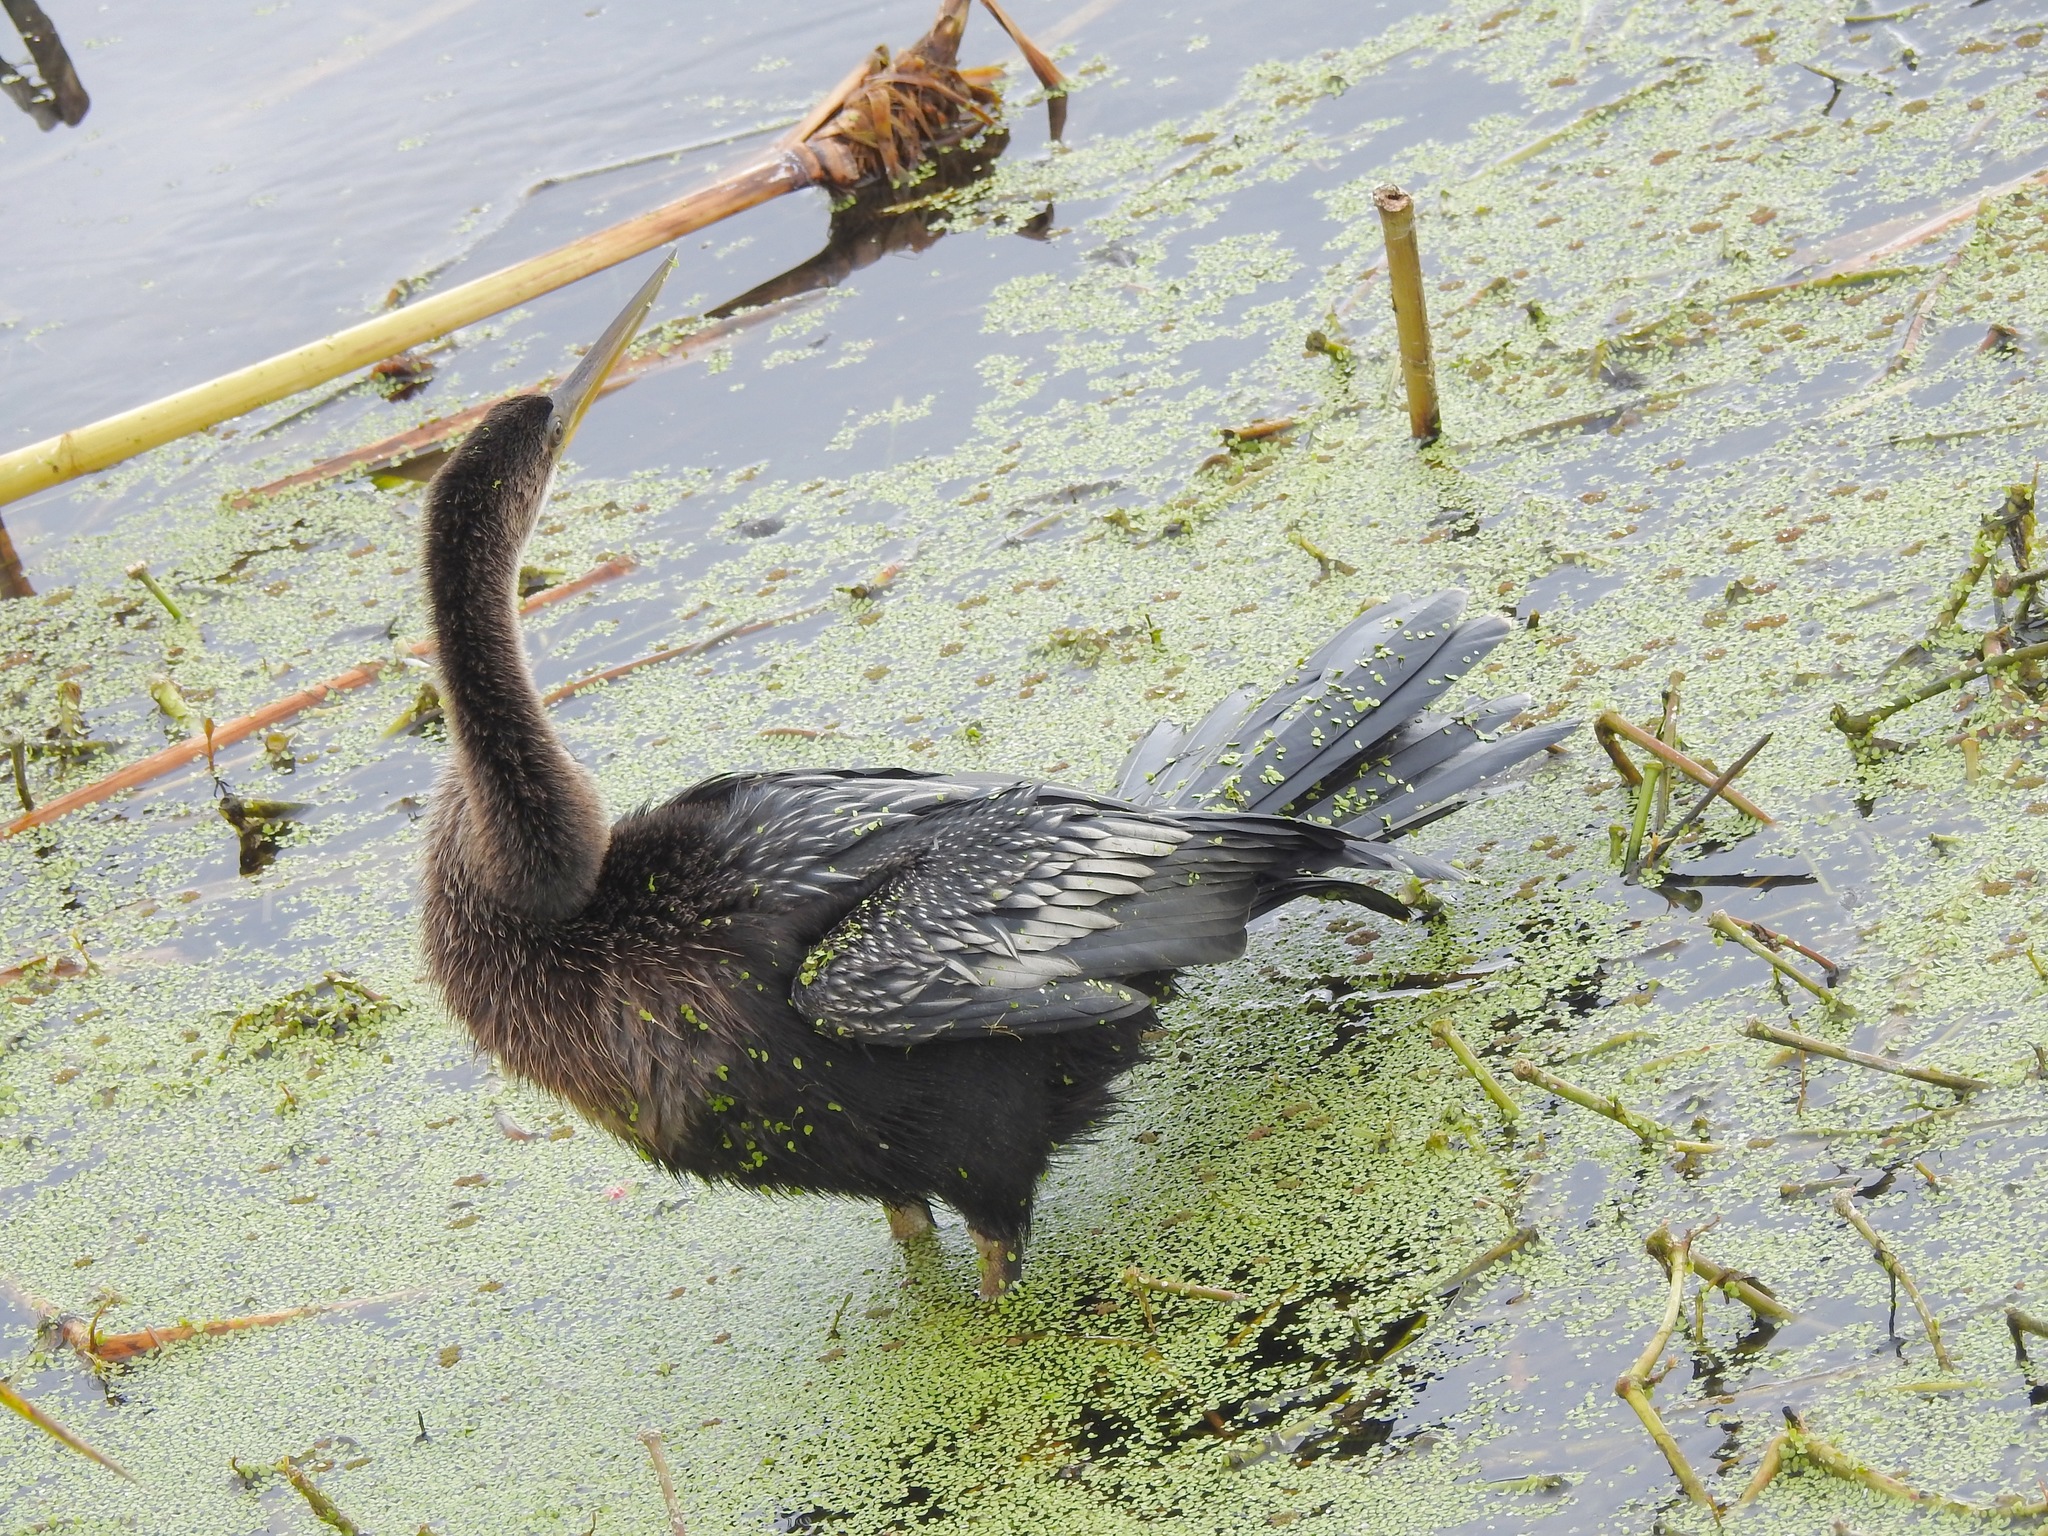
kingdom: Animalia
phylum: Chordata
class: Aves
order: Suliformes
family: Anhingidae
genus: Anhinga
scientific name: Anhinga anhinga
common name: Anhinga
